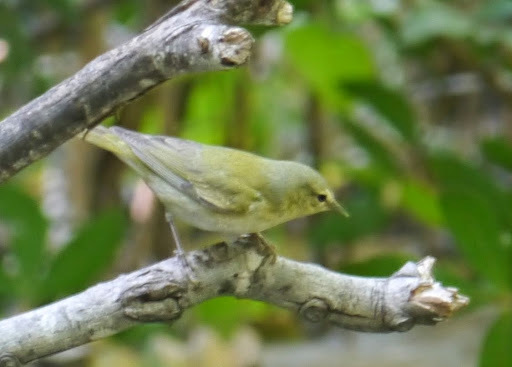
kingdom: Animalia
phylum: Chordata
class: Aves
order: Passeriformes
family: Parulidae
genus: Leiothlypis
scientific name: Leiothlypis peregrina
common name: Tennessee warbler
